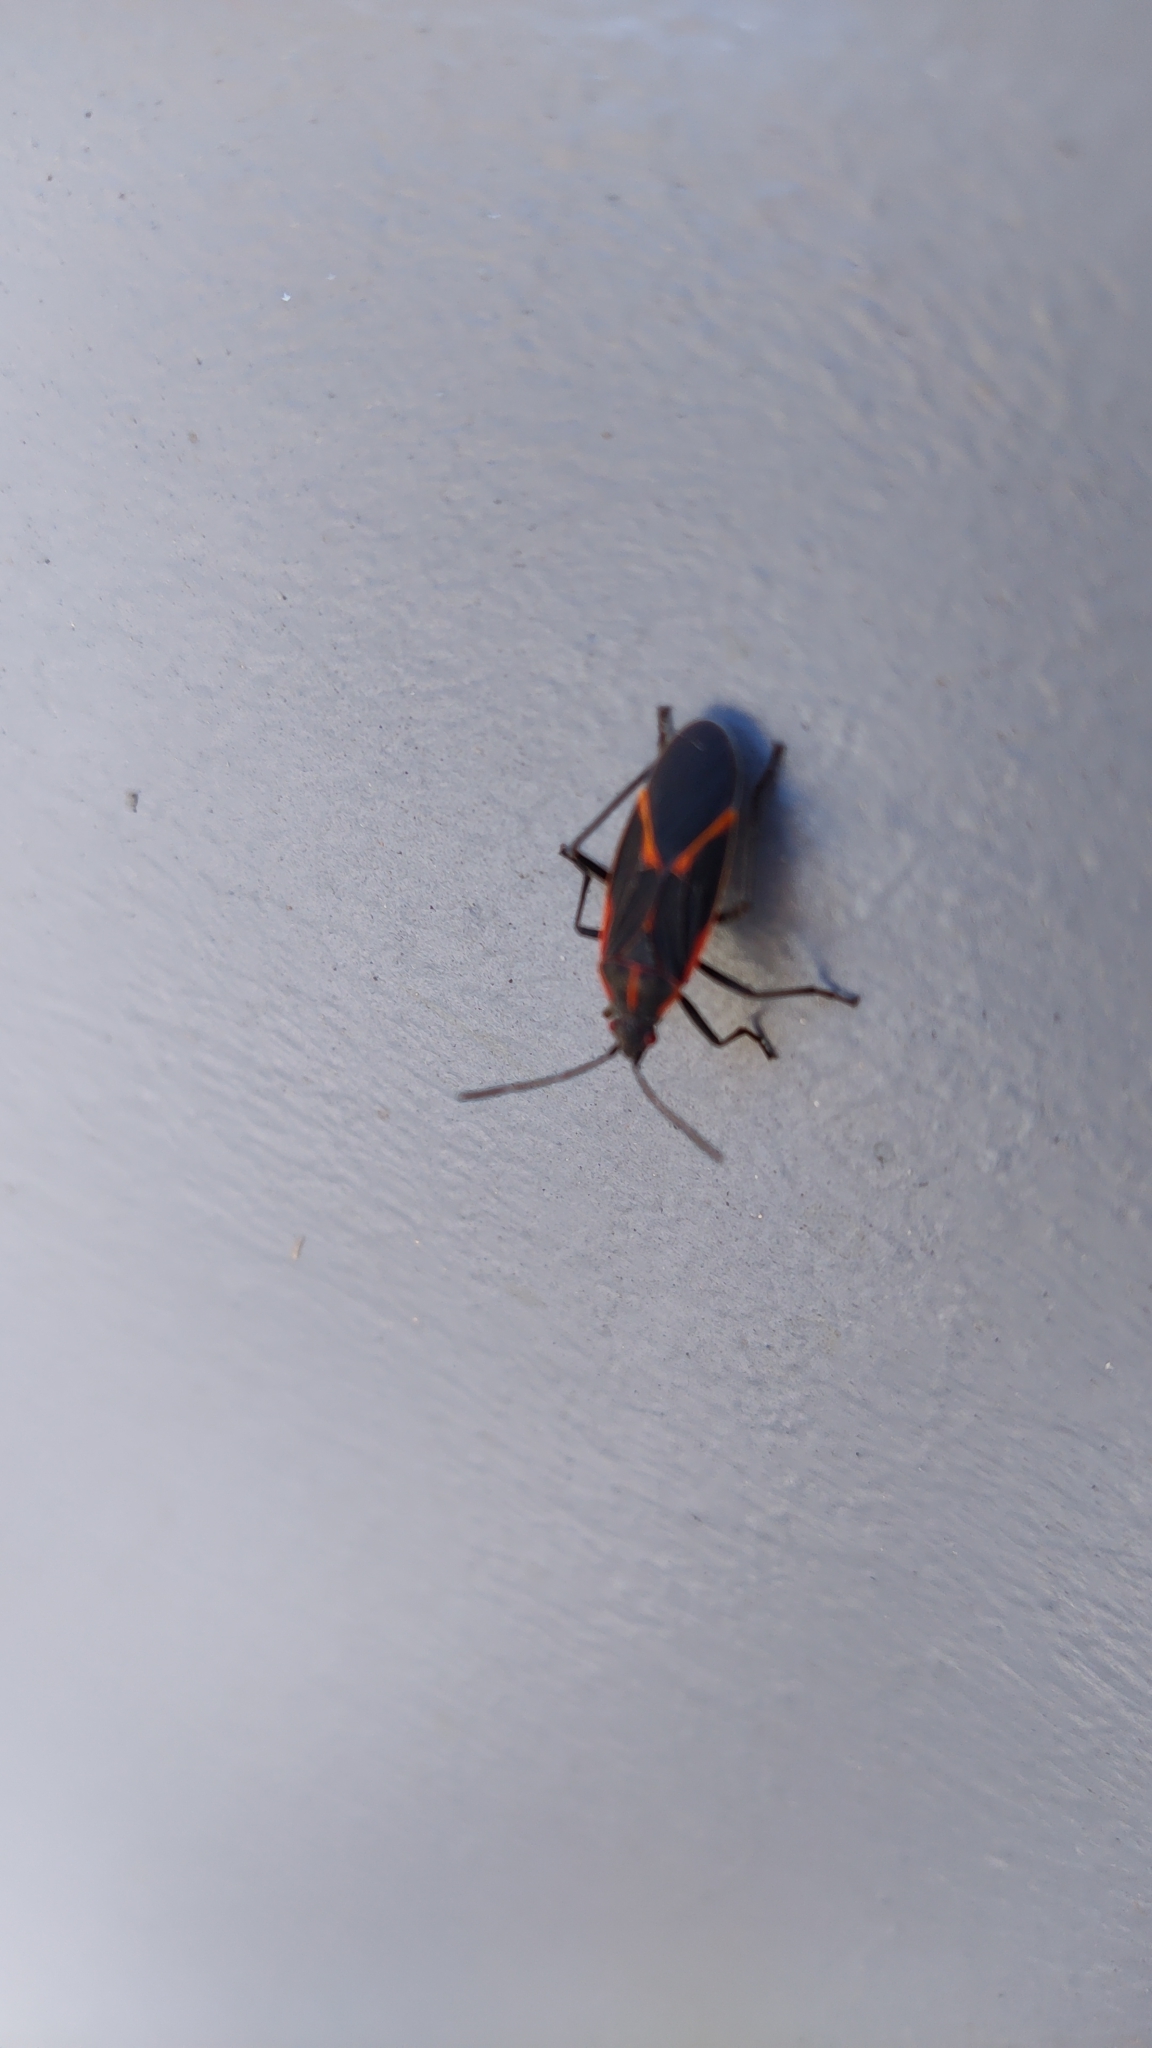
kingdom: Animalia
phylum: Arthropoda
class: Insecta
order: Hemiptera
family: Rhopalidae
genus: Boisea
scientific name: Boisea trivittata
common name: Boxelder bug
